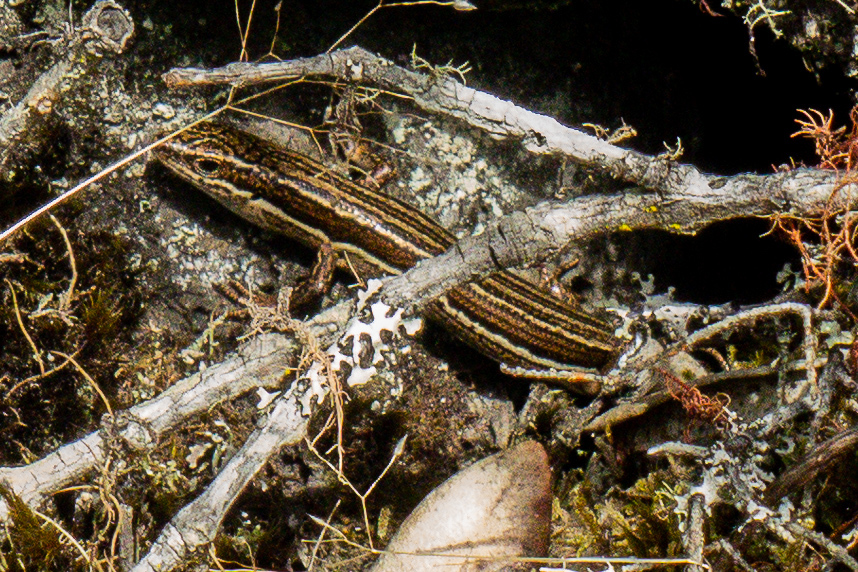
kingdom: Animalia
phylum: Chordata
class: Squamata
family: Scincidae
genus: Oligosoma
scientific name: Oligosoma moco
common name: Moco skink
